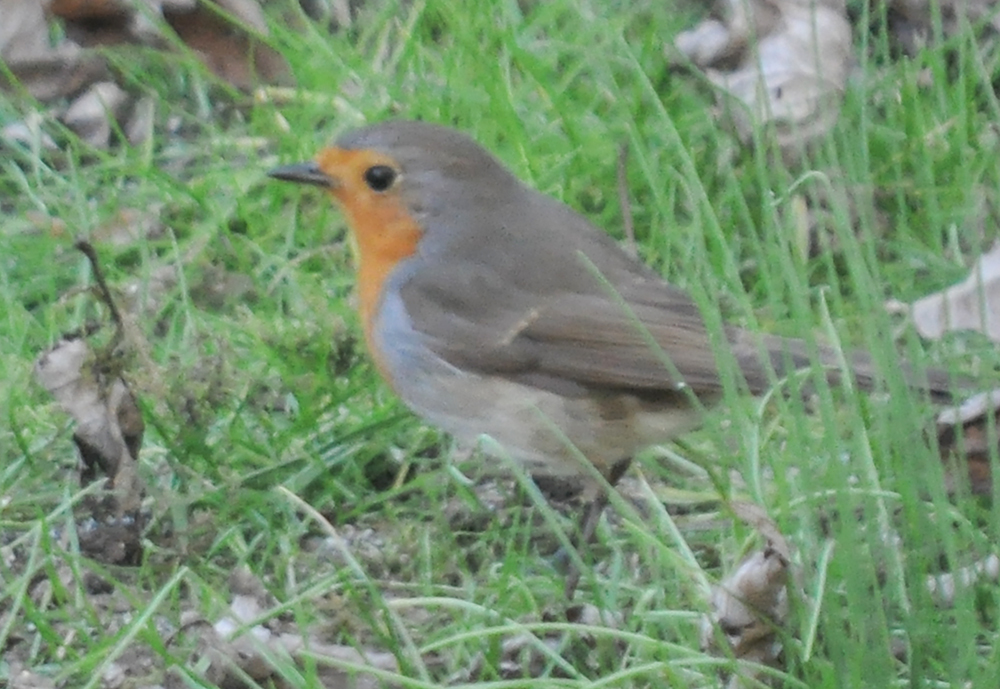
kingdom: Animalia
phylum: Chordata
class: Aves
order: Passeriformes
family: Muscicapidae
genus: Erithacus
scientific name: Erithacus rubecula
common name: European robin
